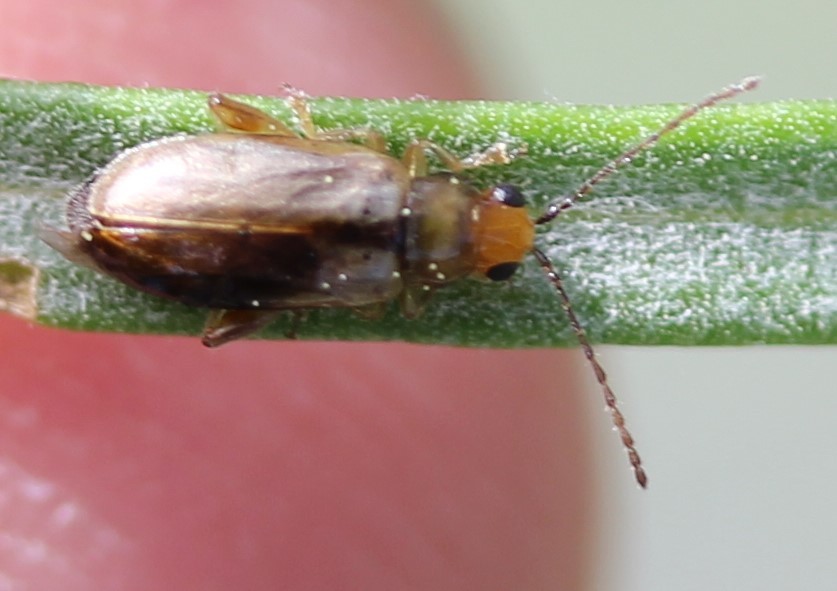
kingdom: Animalia
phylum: Arthropoda
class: Insecta
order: Coleoptera
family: Chrysomelidae
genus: Systena
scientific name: Systena laevis
